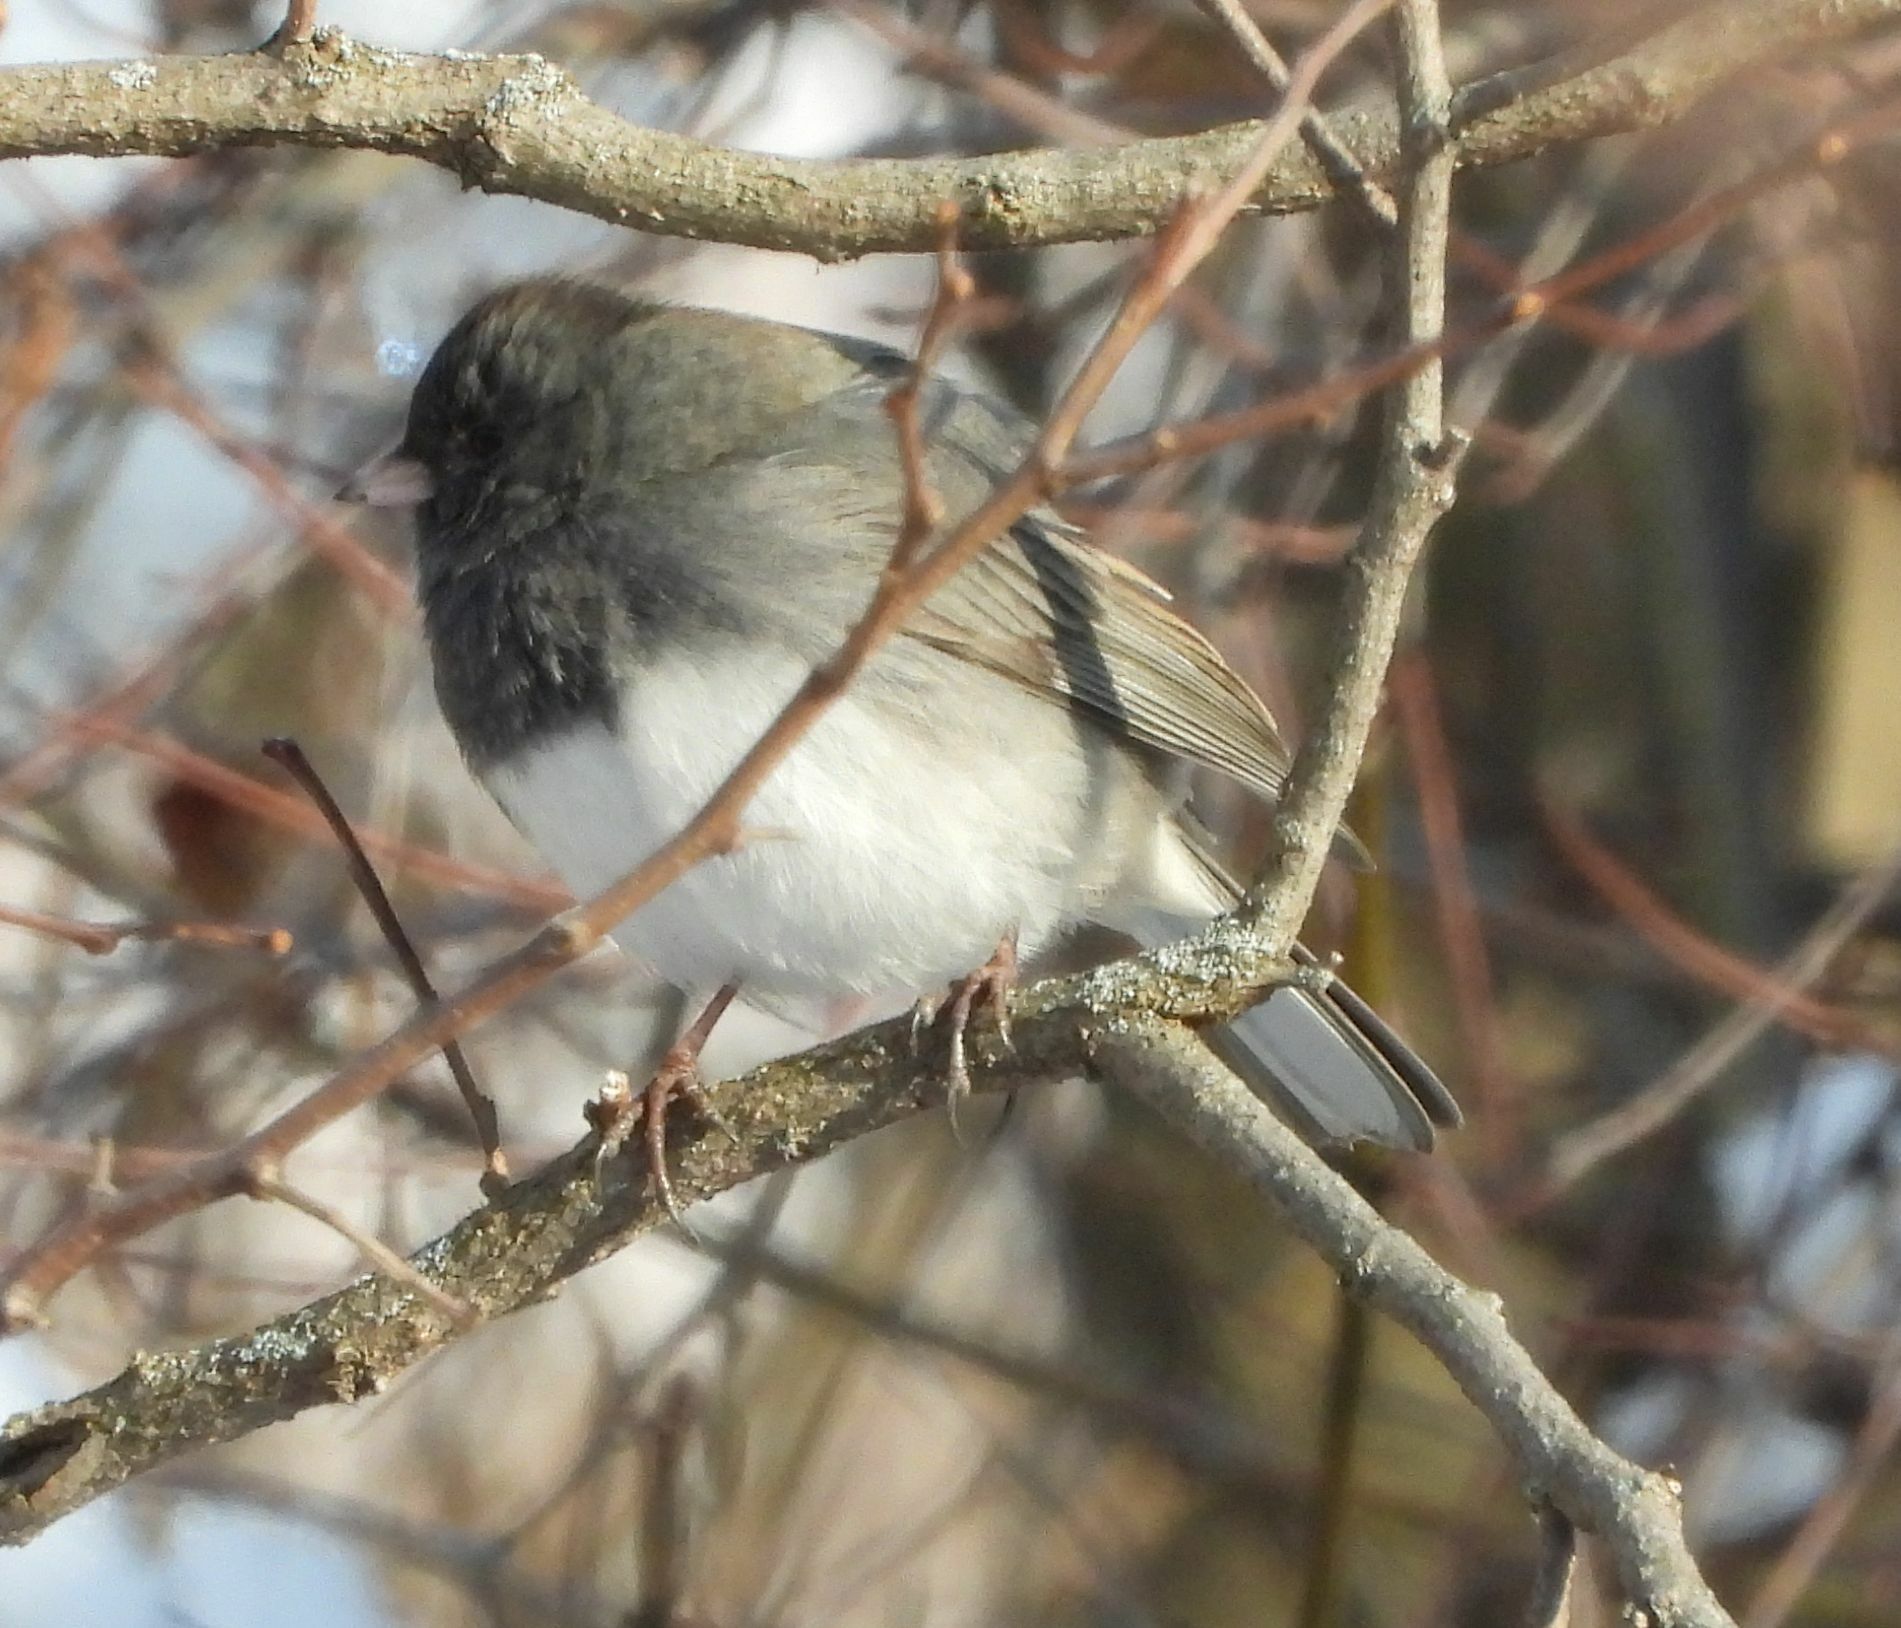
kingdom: Animalia
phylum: Chordata
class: Aves
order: Passeriformes
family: Passerellidae
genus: Junco
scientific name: Junco hyemalis
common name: Dark-eyed junco
